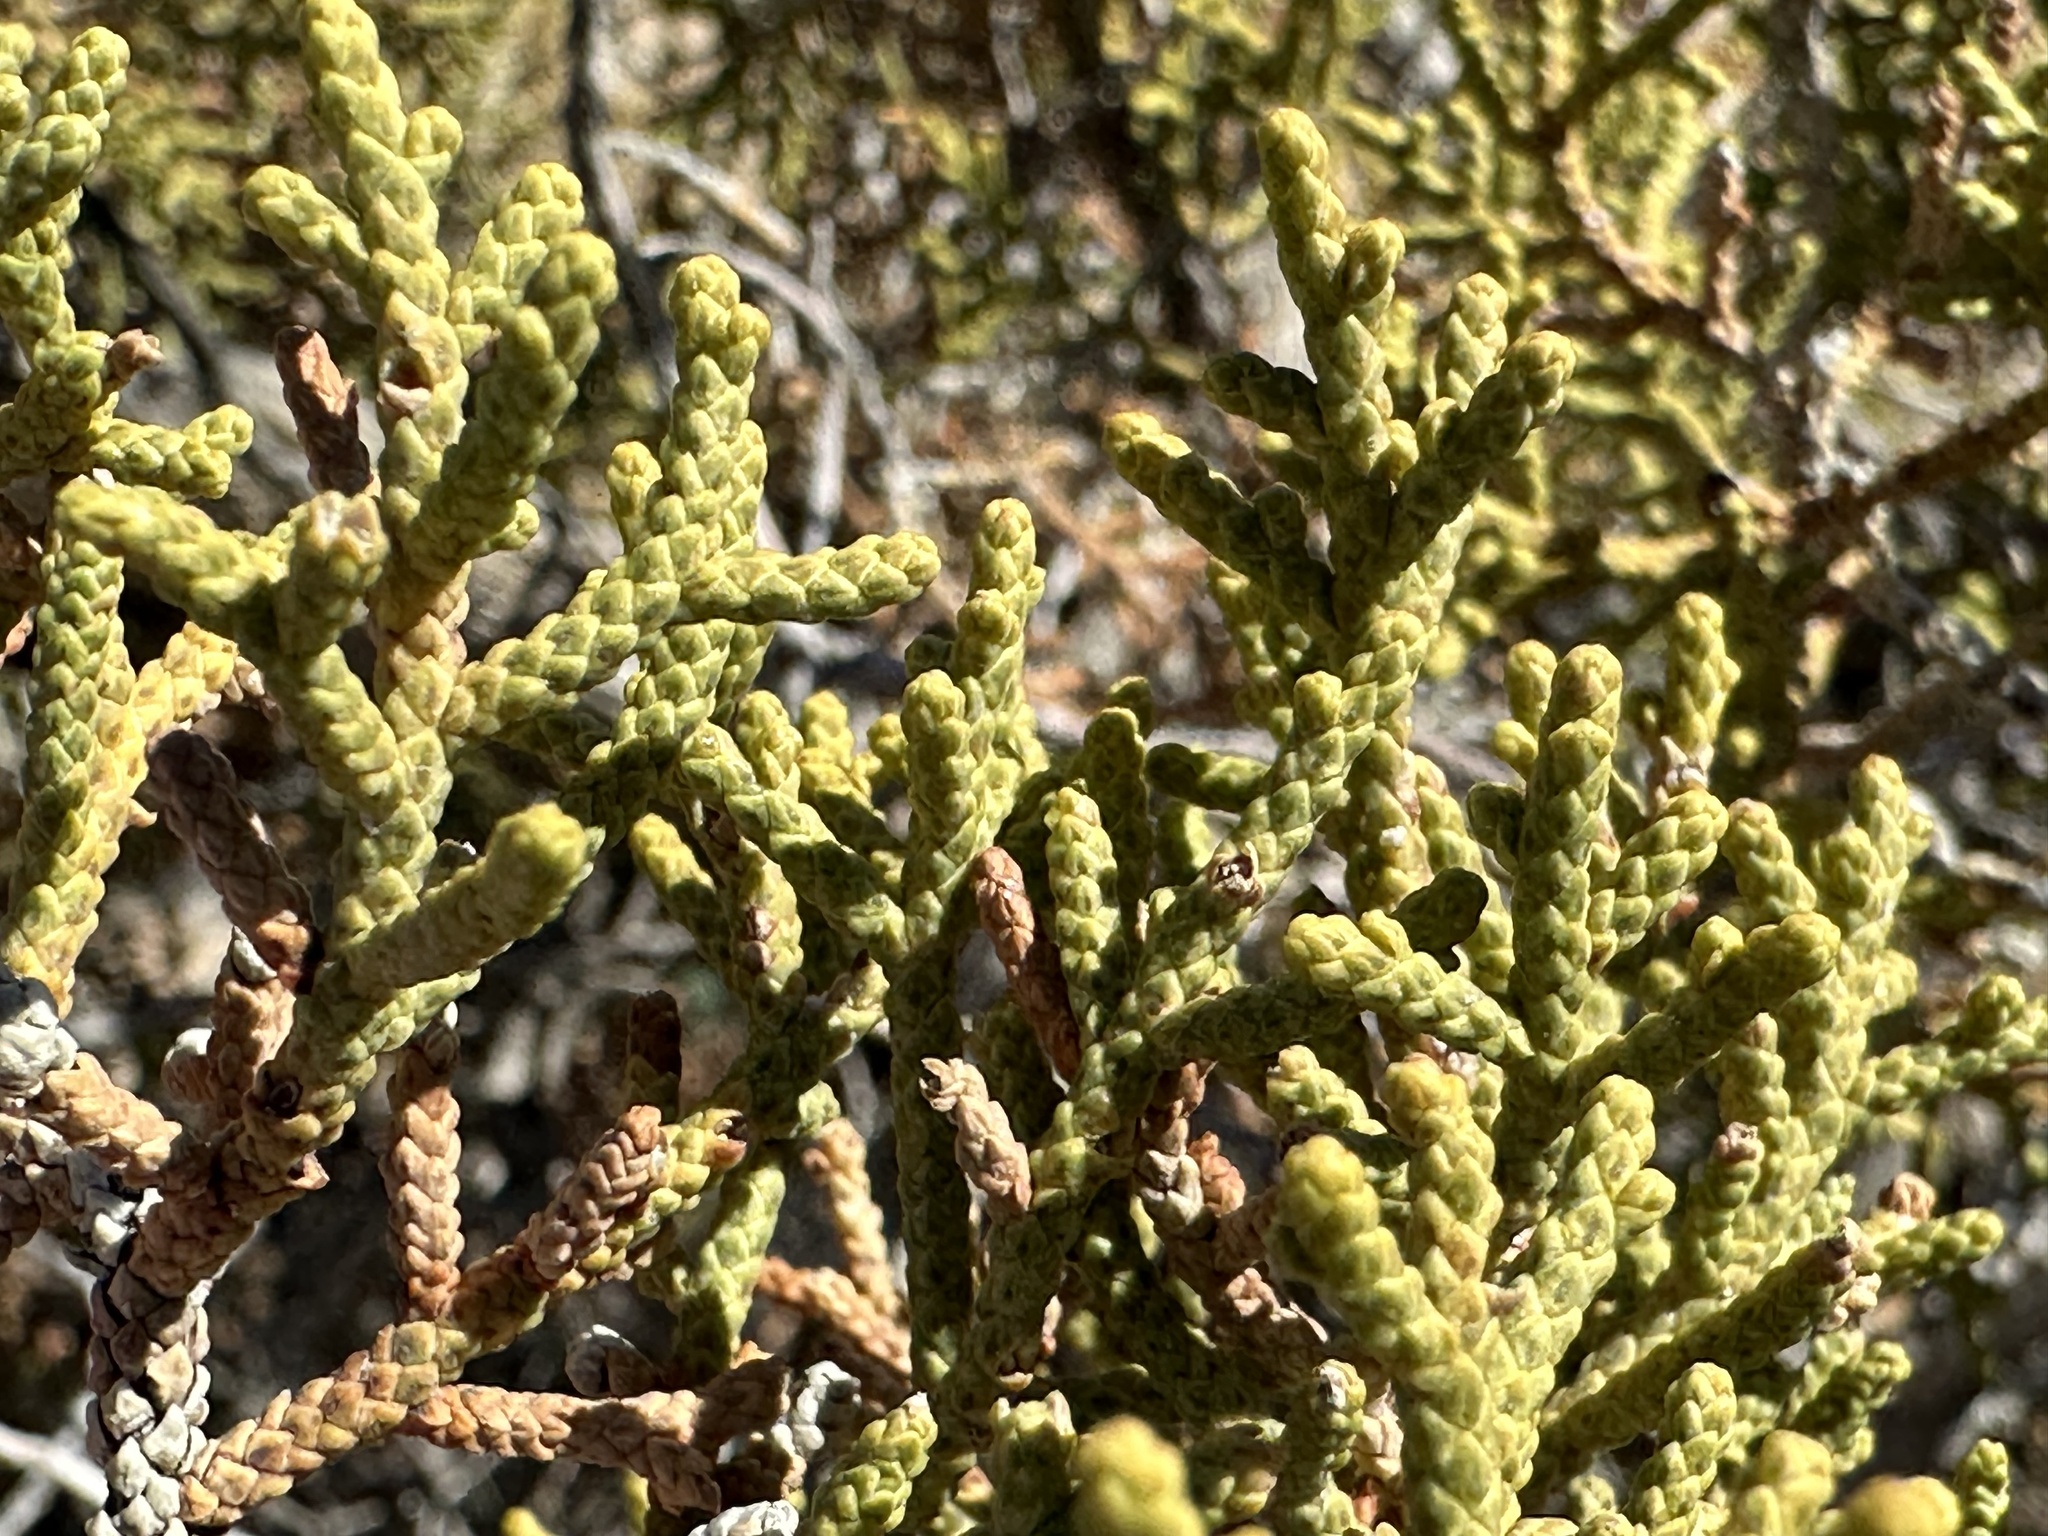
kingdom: Plantae
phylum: Tracheophyta
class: Pinopsida
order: Pinales
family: Cupressaceae
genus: Juniperus
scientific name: Juniperus californica
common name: California juniper
